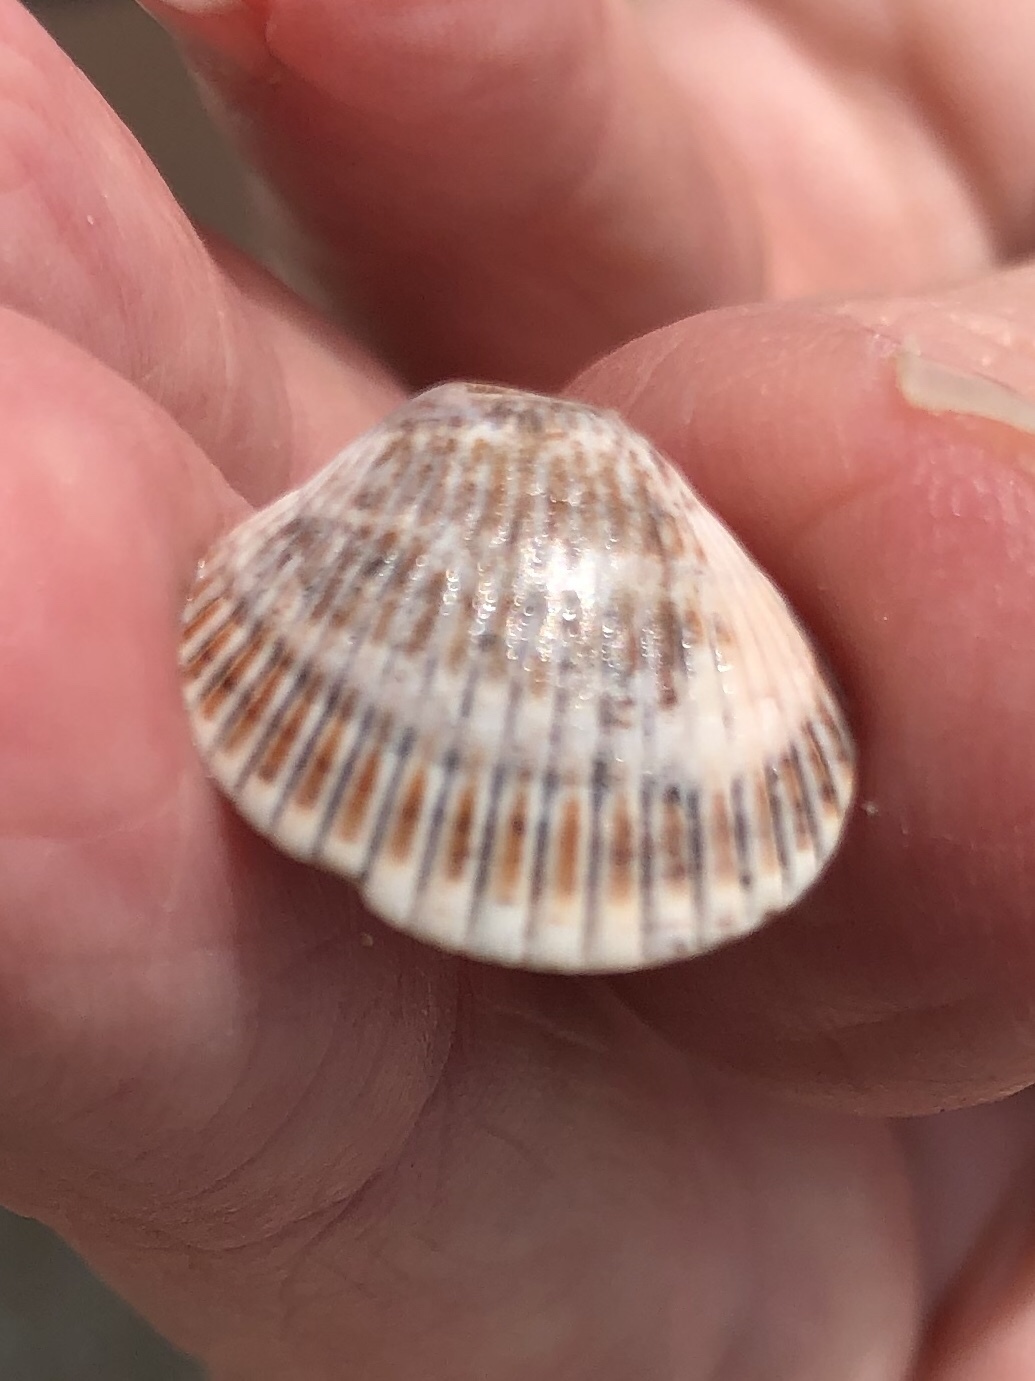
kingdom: Animalia
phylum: Mollusca
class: Bivalvia
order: Arcida
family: Arcidae
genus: Lunarca
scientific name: Lunarca ovalis
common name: Blood ark
